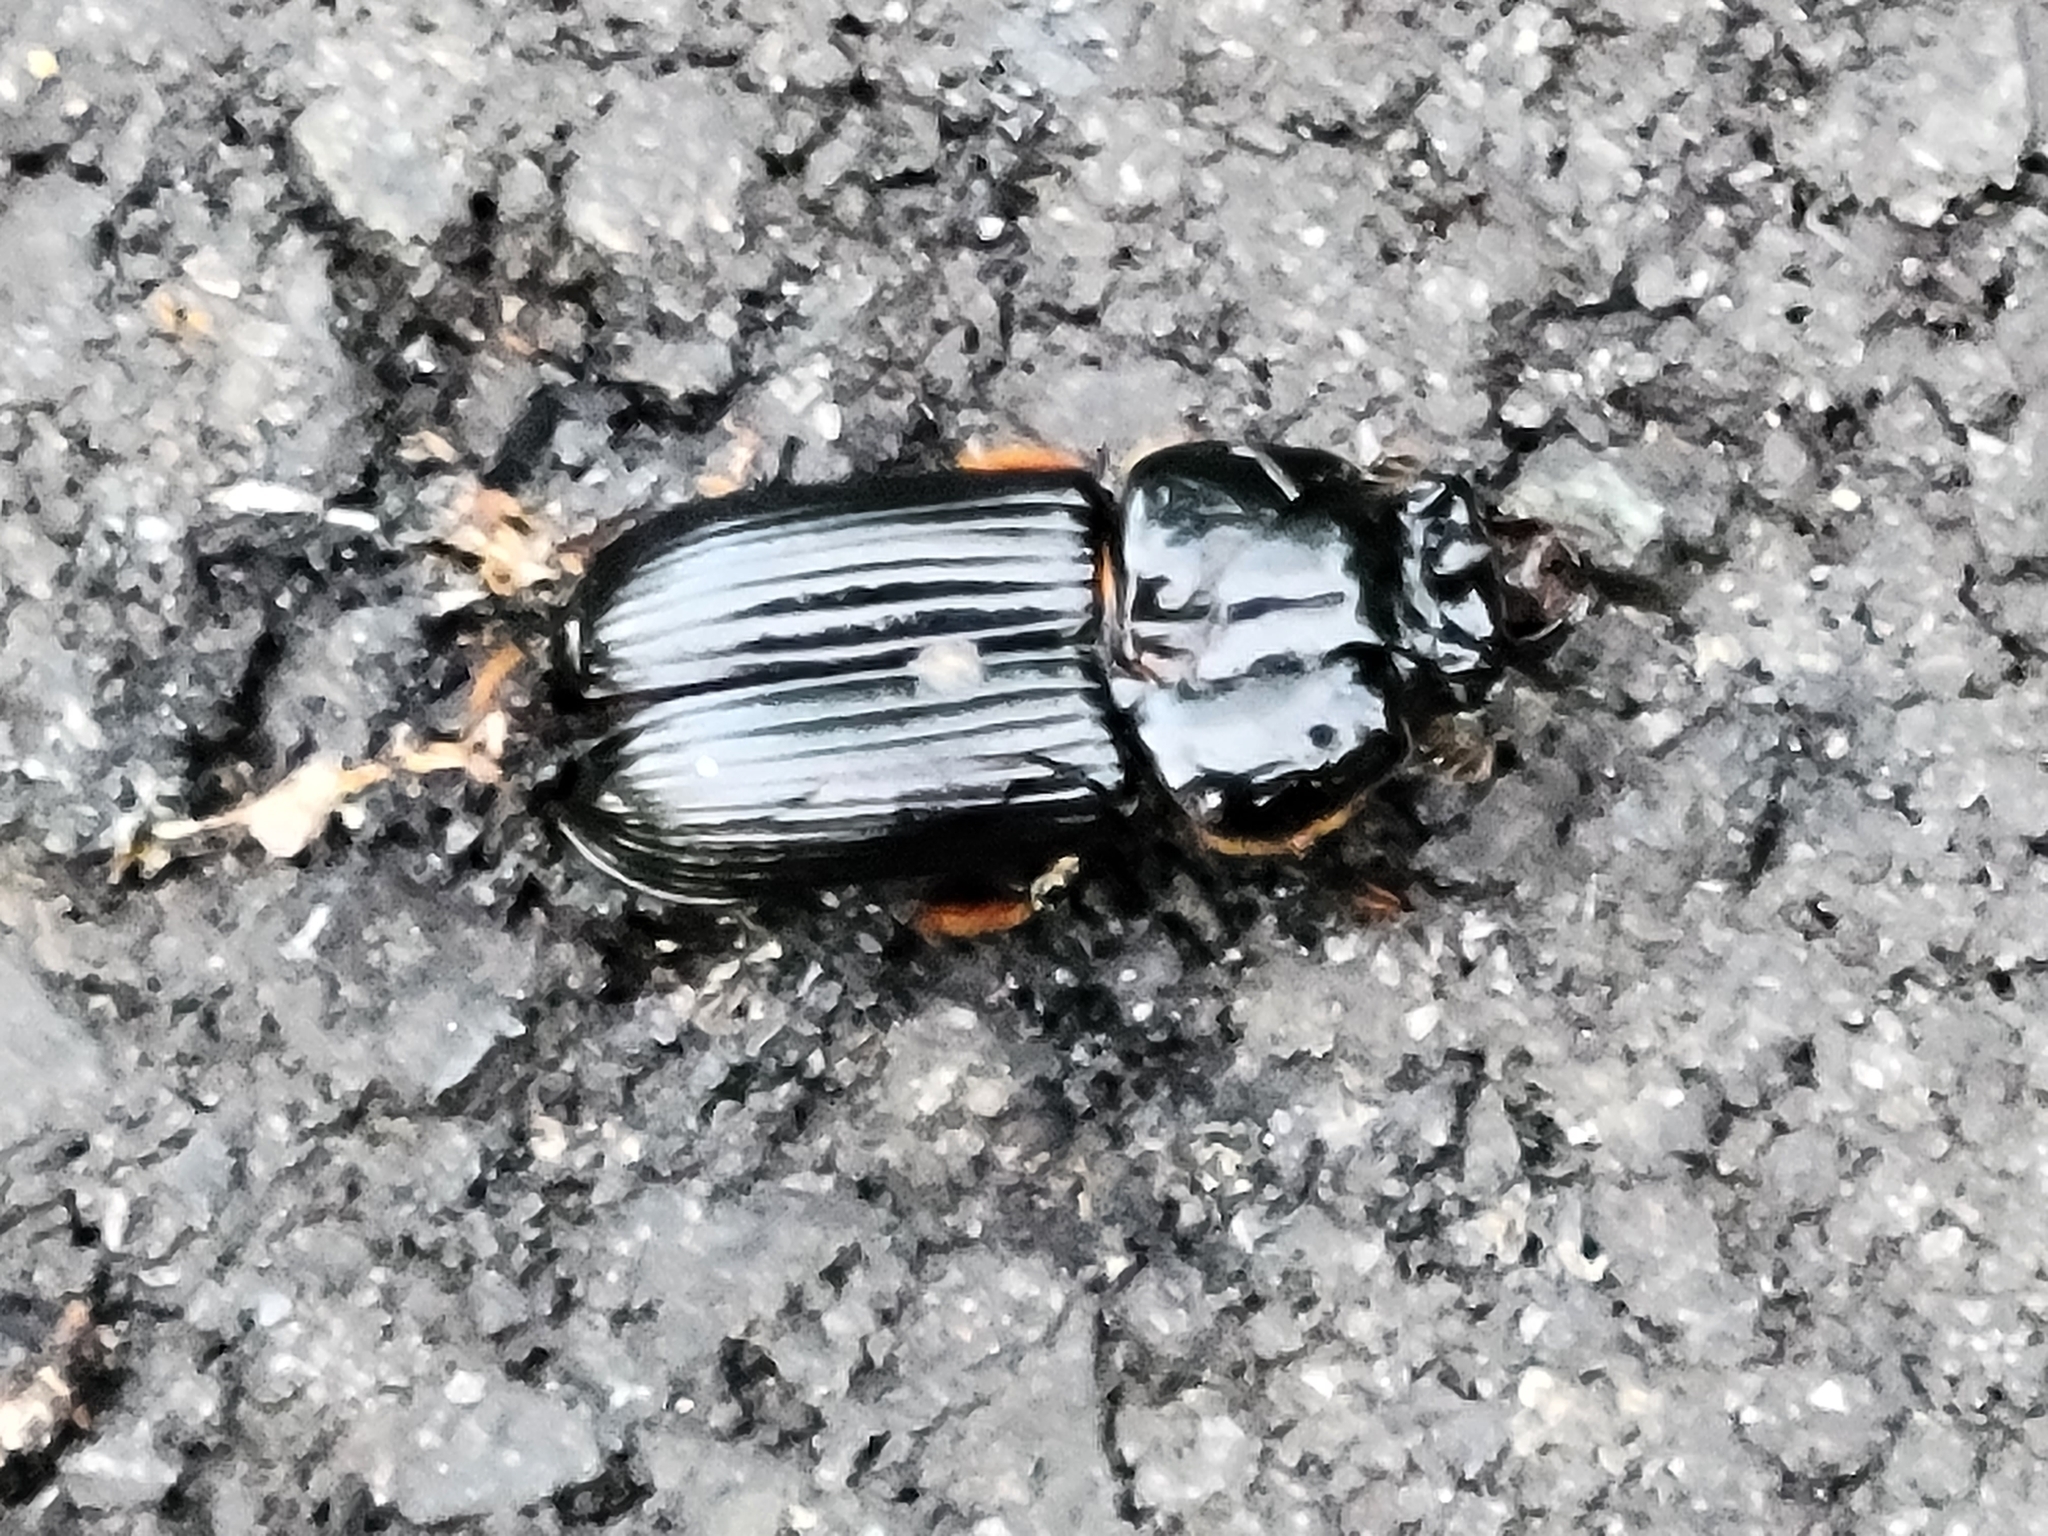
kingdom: Animalia
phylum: Arthropoda
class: Insecta
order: Coleoptera
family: Passalidae
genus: Odontotaenius
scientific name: Odontotaenius disjunctus
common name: Patent leather beetle
